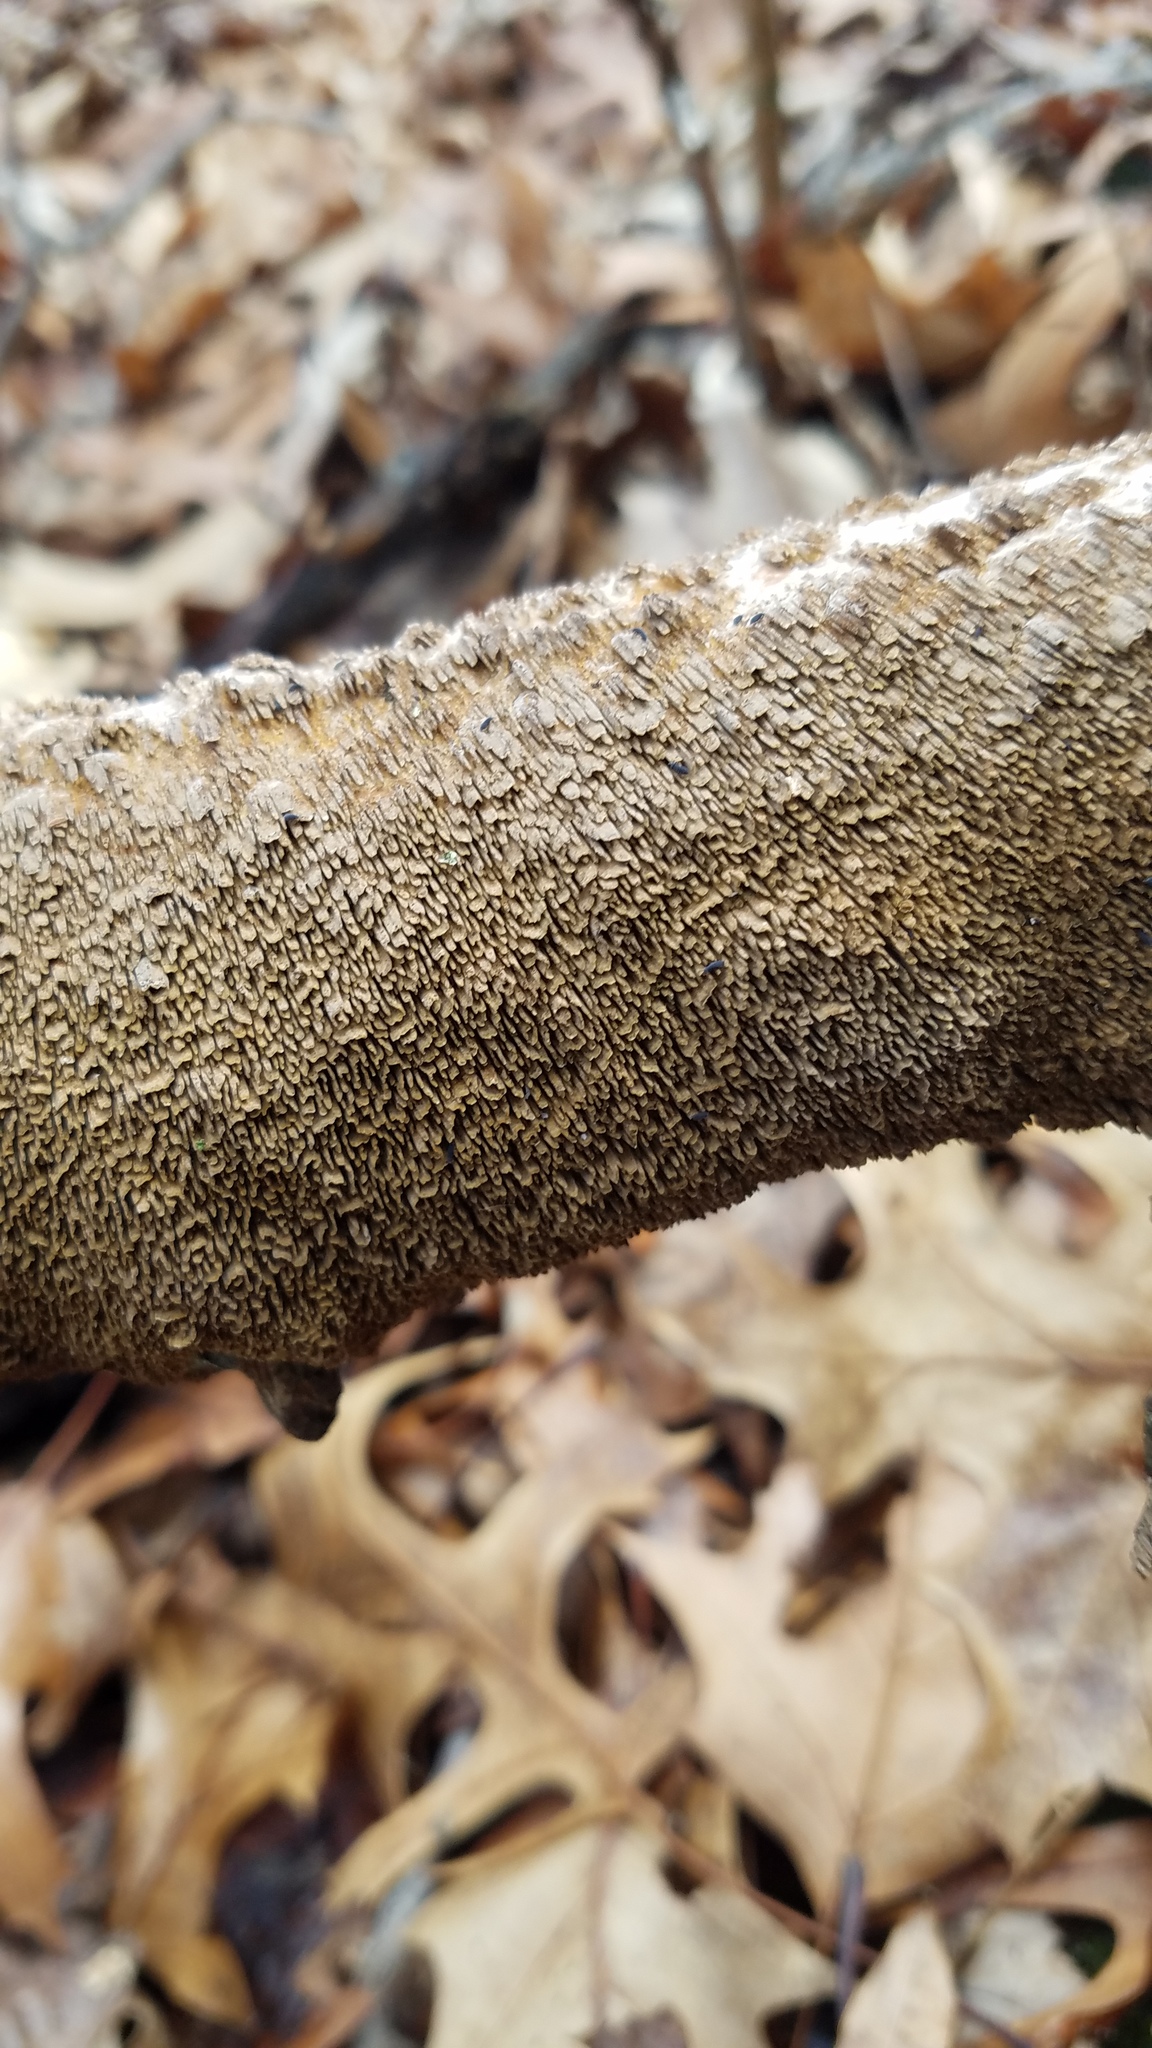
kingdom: Fungi
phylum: Basidiomycota
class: Agaricomycetes
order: Hymenochaetales
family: Hymenochaetaceae
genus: Hydnoporia
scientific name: Hydnoporia olivacea
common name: Brown-toothed crust fungus
